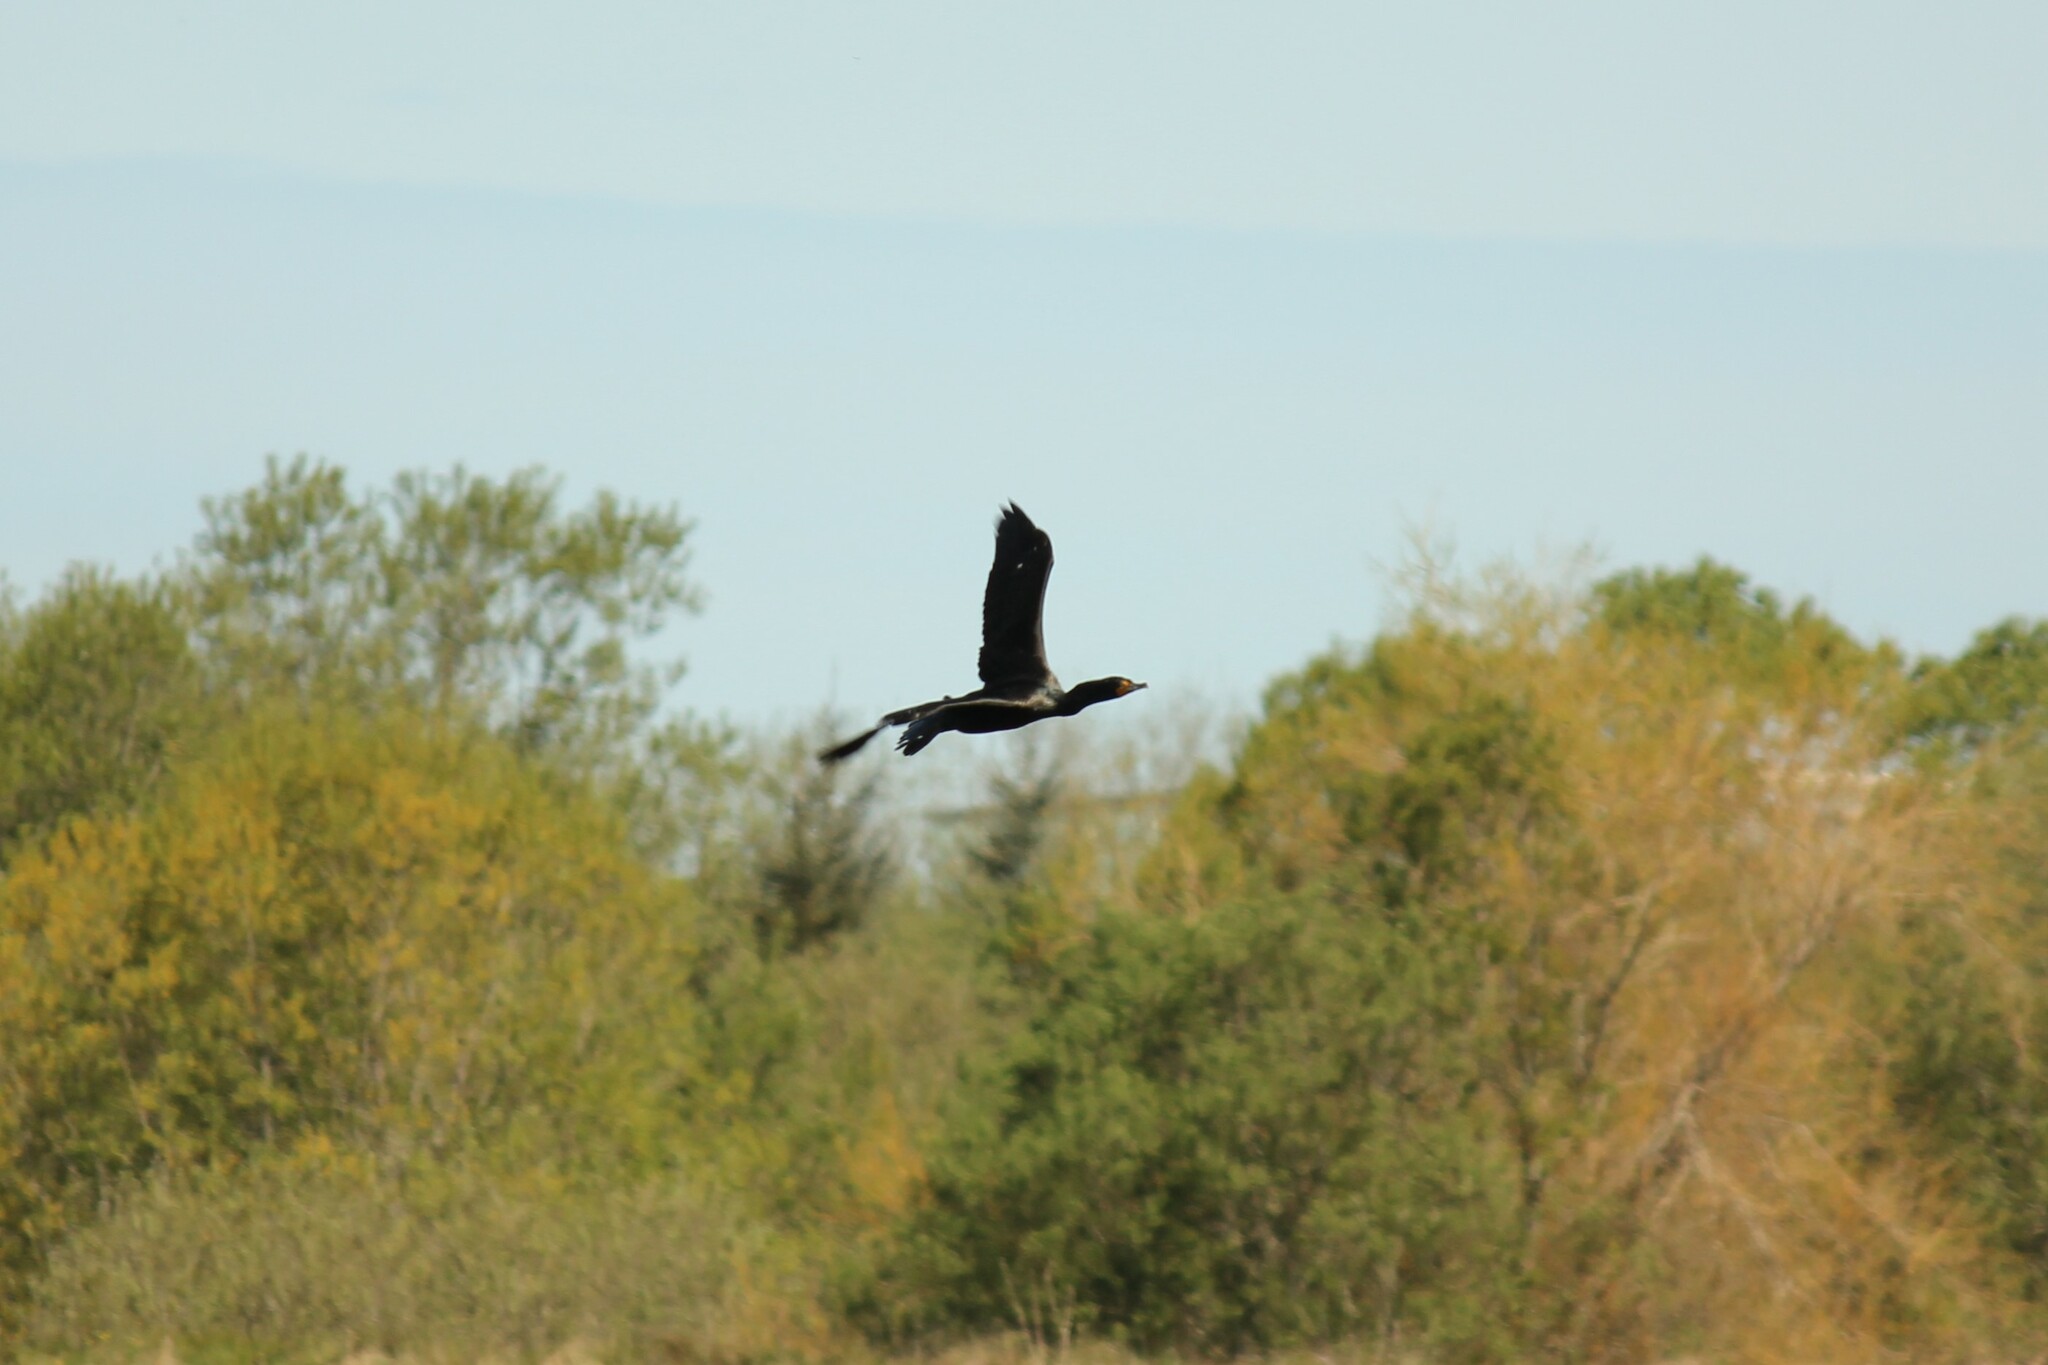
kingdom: Animalia
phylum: Chordata
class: Aves
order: Suliformes
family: Phalacrocoracidae
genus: Phalacrocorax
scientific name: Phalacrocorax auritus
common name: Double-crested cormorant
